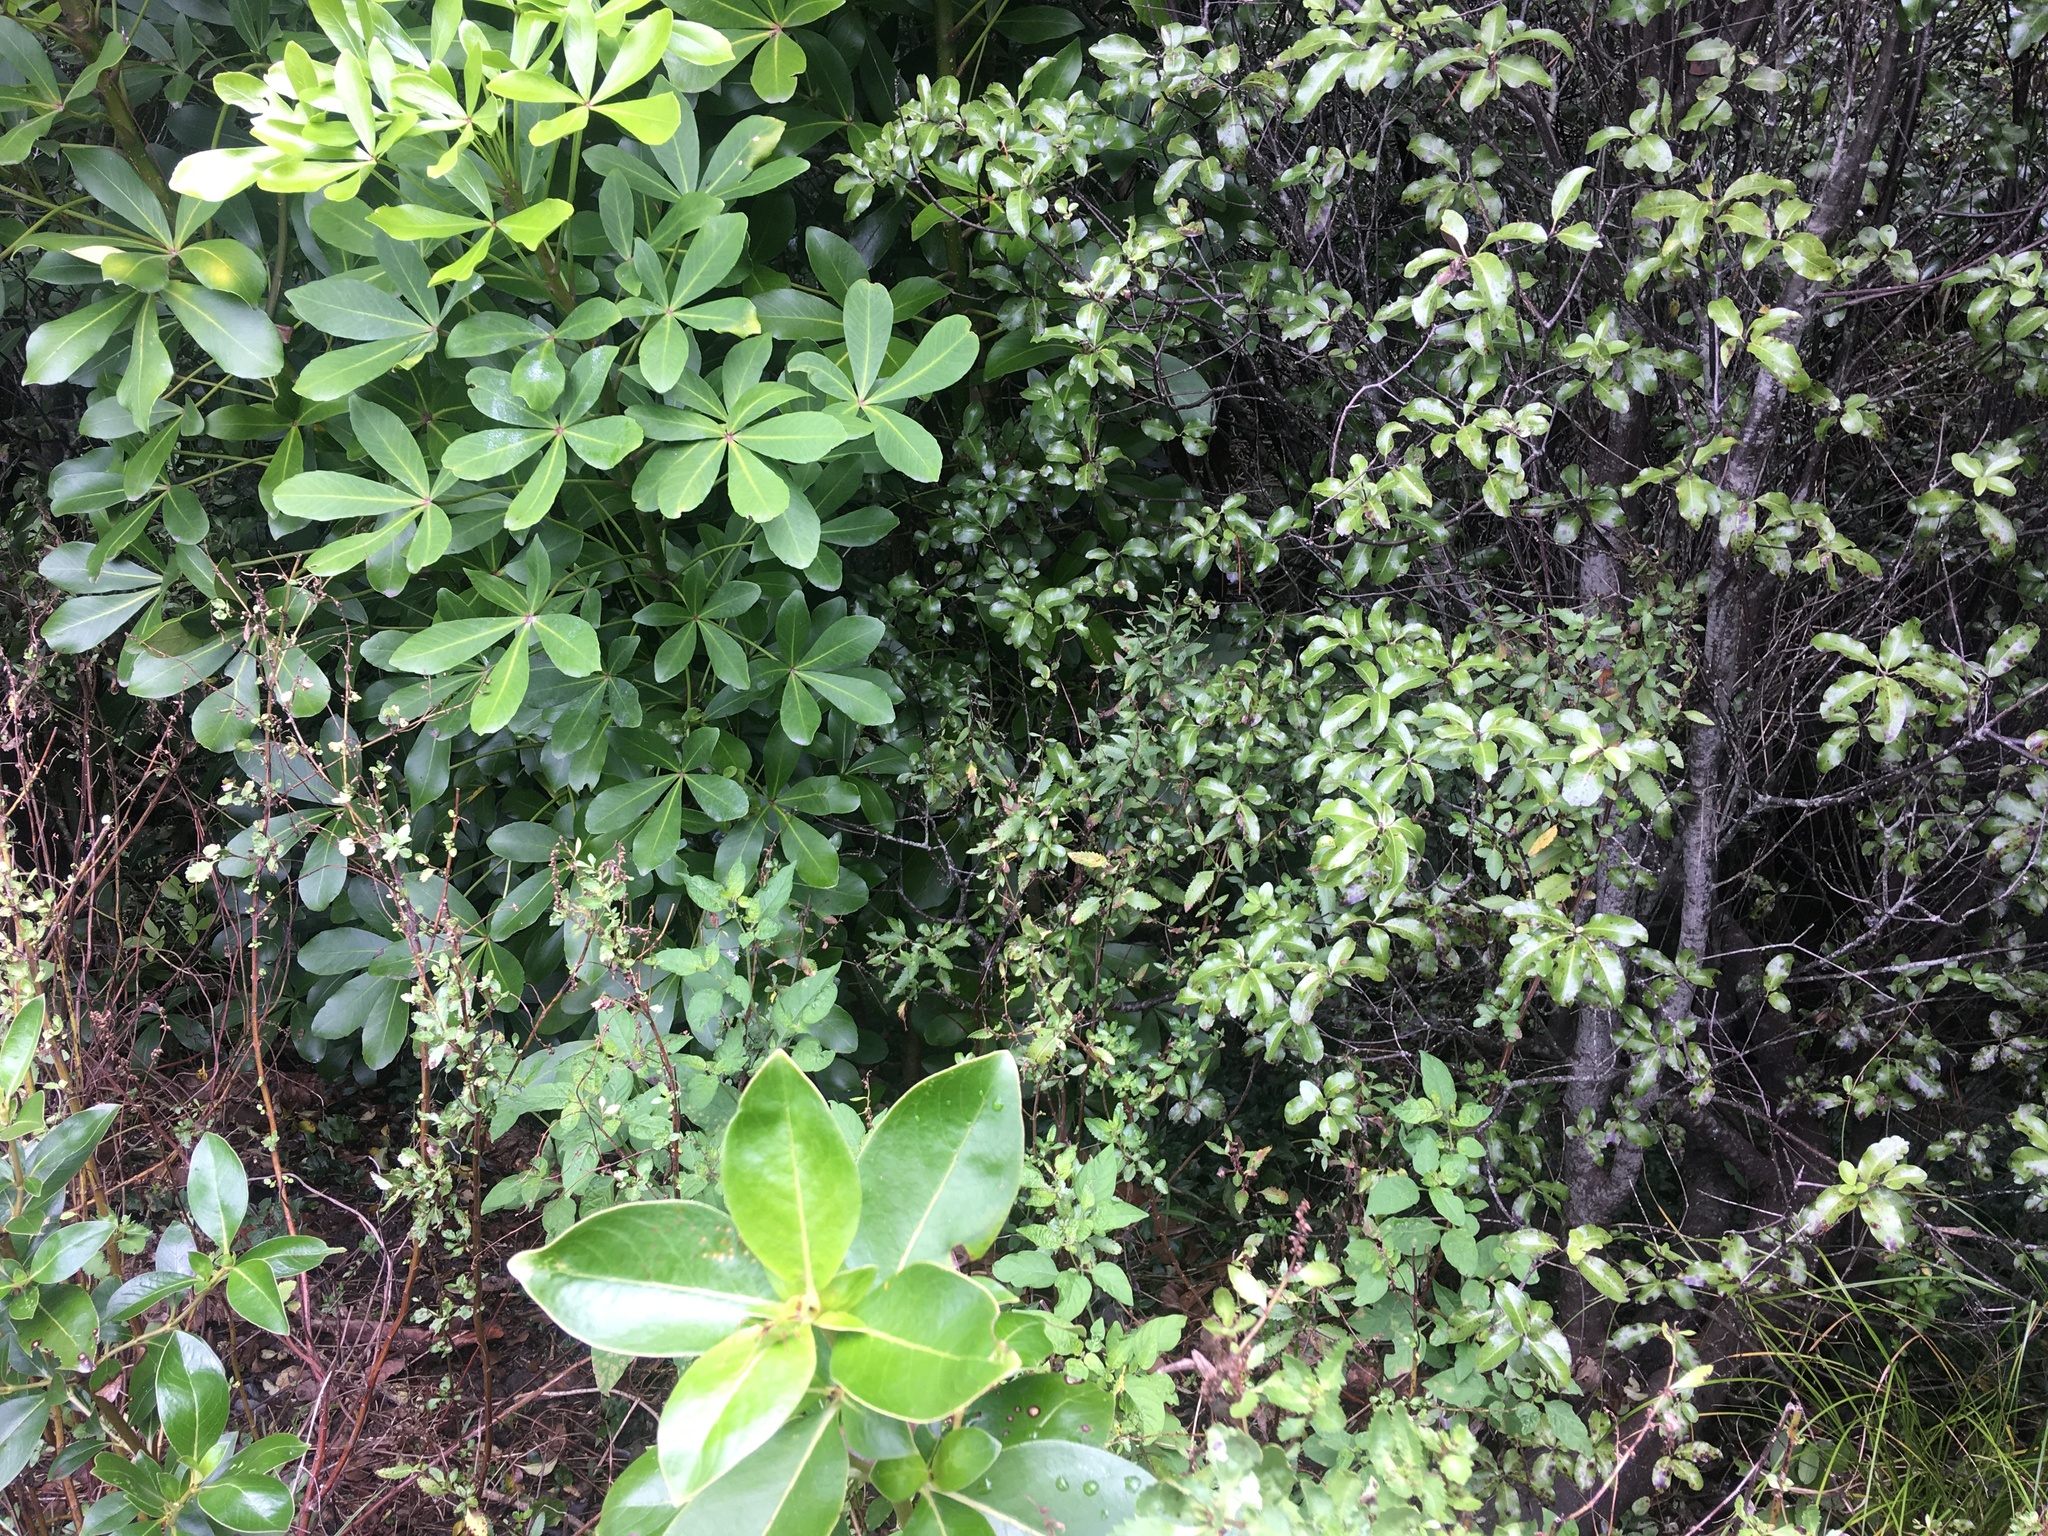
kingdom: Plantae
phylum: Tracheophyta
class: Magnoliopsida
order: Apiales
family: Araliaceae
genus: Pseudopanax
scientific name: Pseudopanax lessonii
